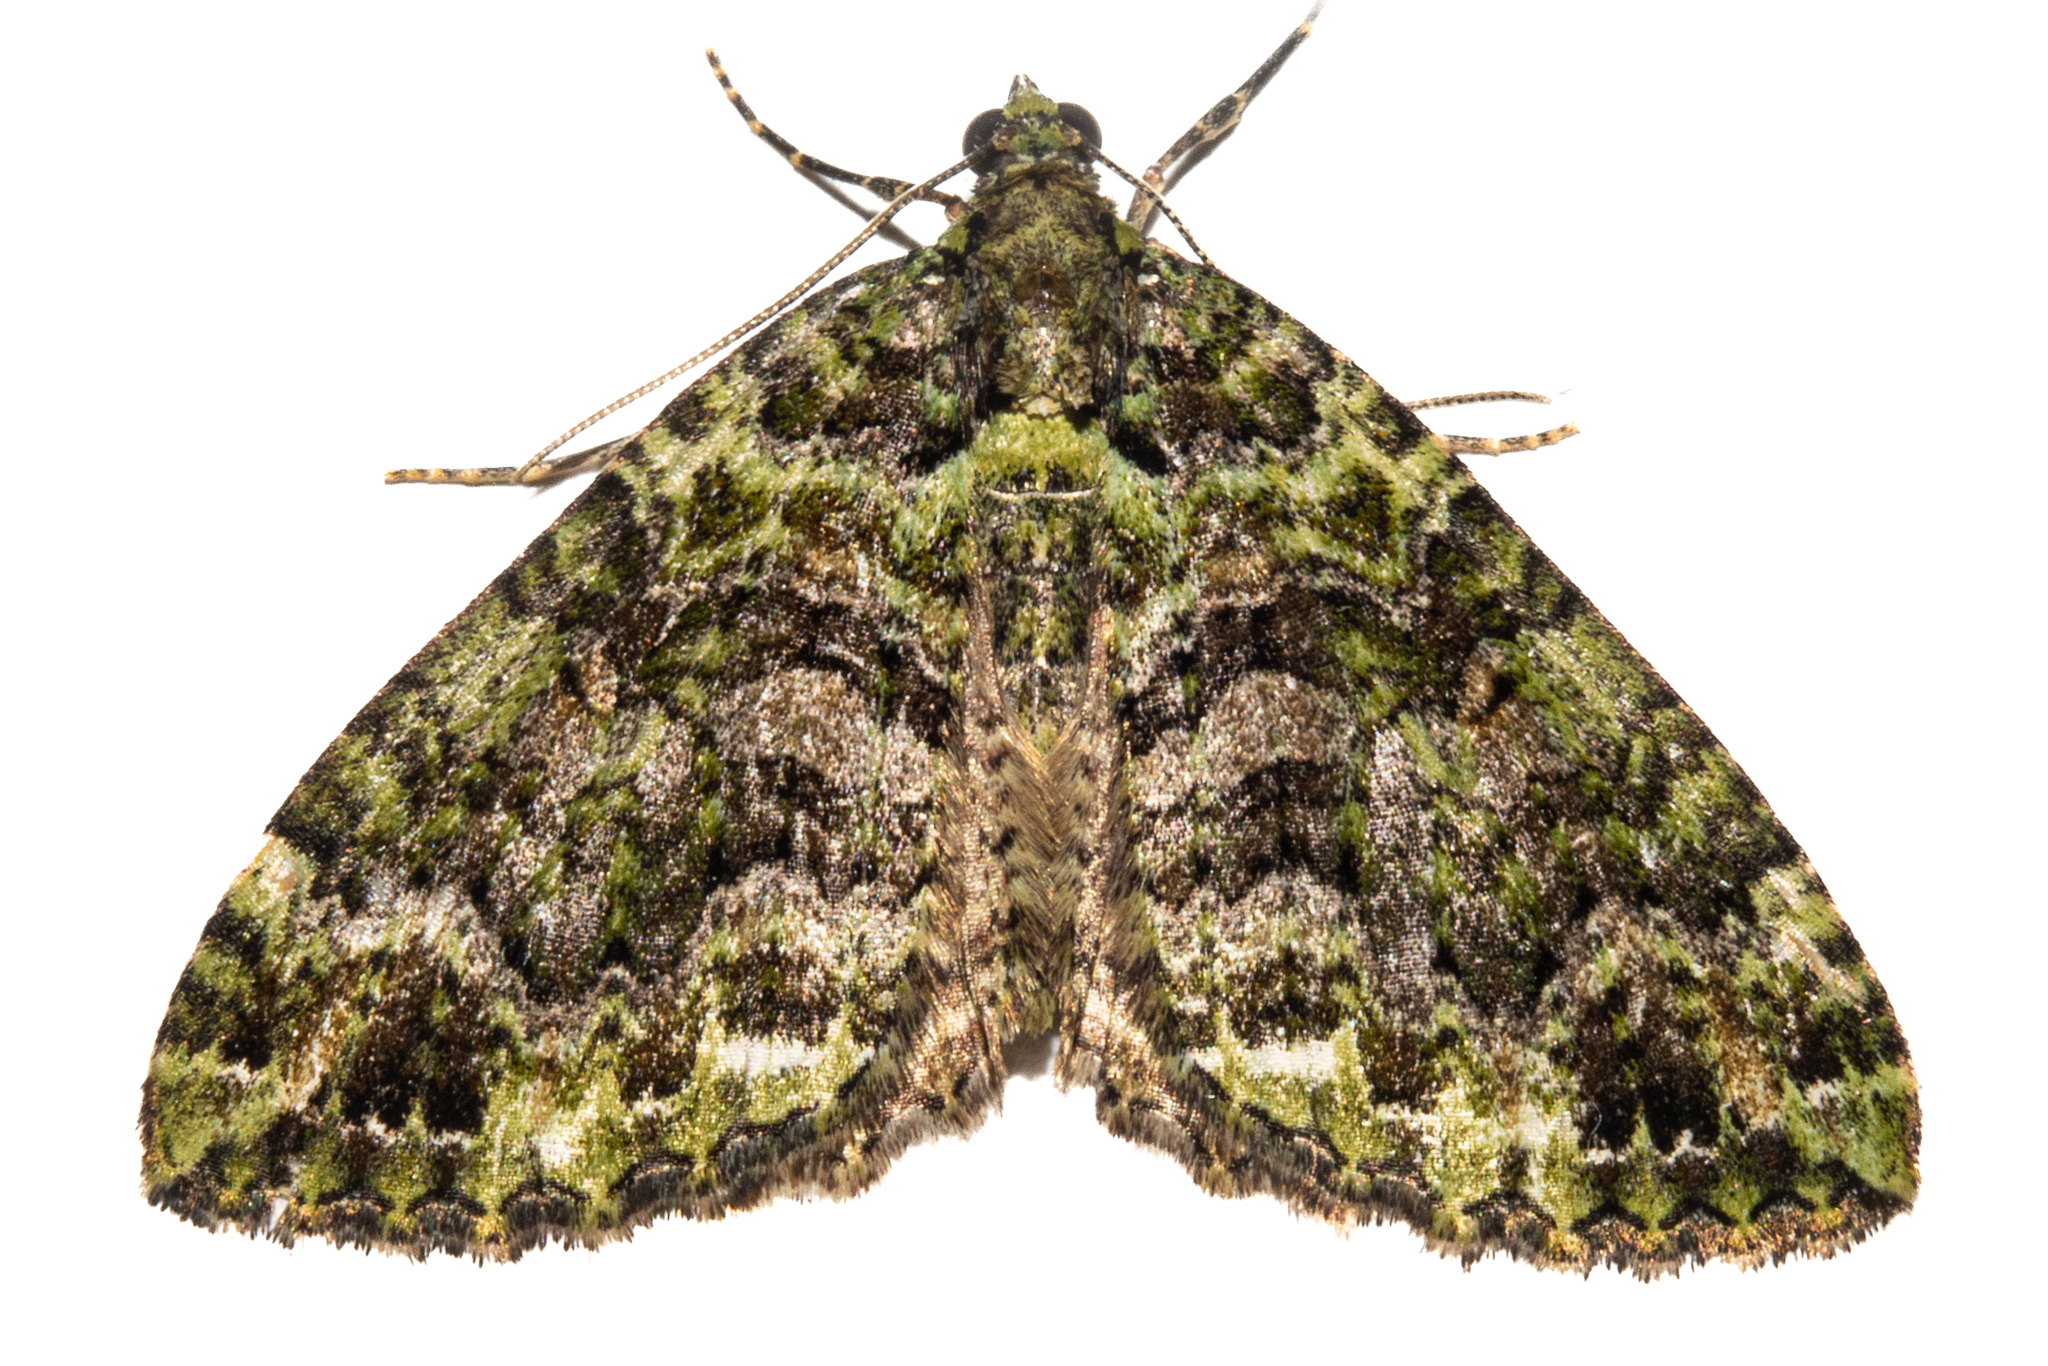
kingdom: Animalia
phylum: Arthropoda
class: Insecta
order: Lepidoptera
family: Geometridae
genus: Austrocidaria
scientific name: Austrocidaria similata
